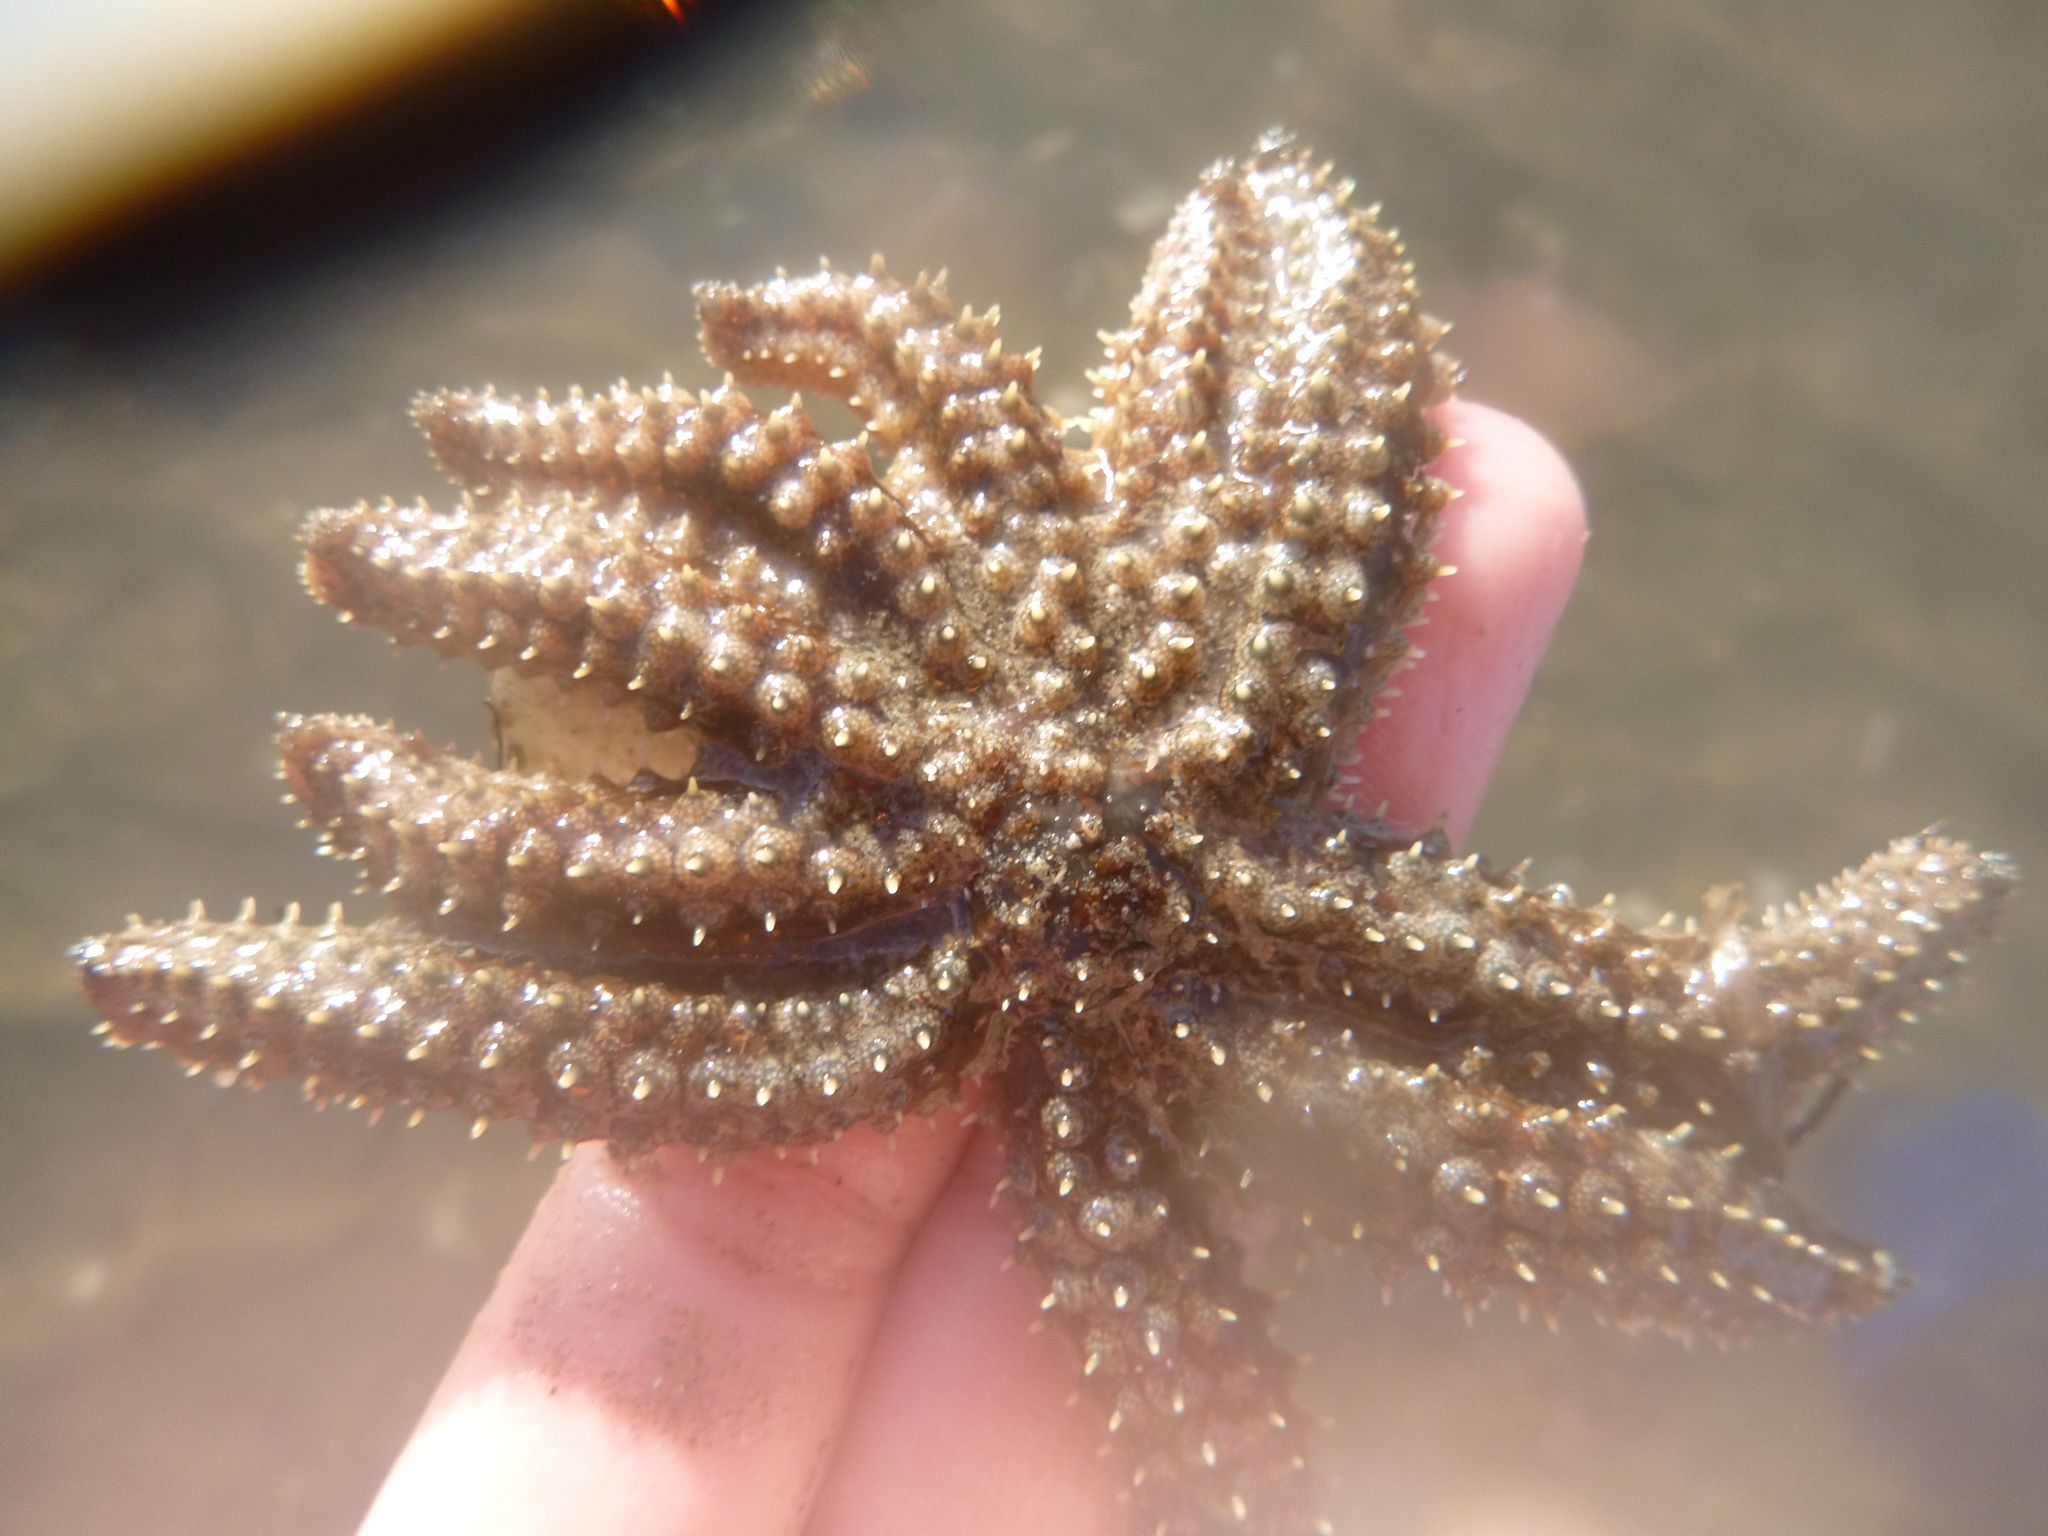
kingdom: Animalia
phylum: Echinodermata
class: Asteroidea
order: Forcipulatida
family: Asteriidae
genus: Coscinasterias
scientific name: Coscinasterias muricata
